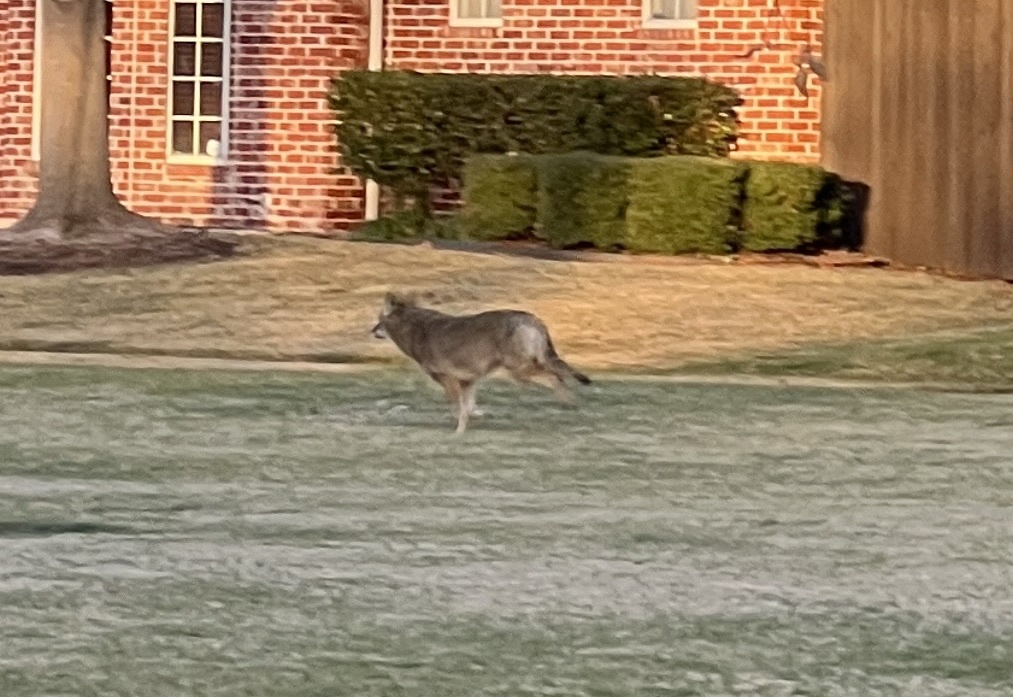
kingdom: Animalia
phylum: Chordata
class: Mammalia
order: Carnivora
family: Canidae
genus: Canis
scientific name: Canis latrans
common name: Coyote
